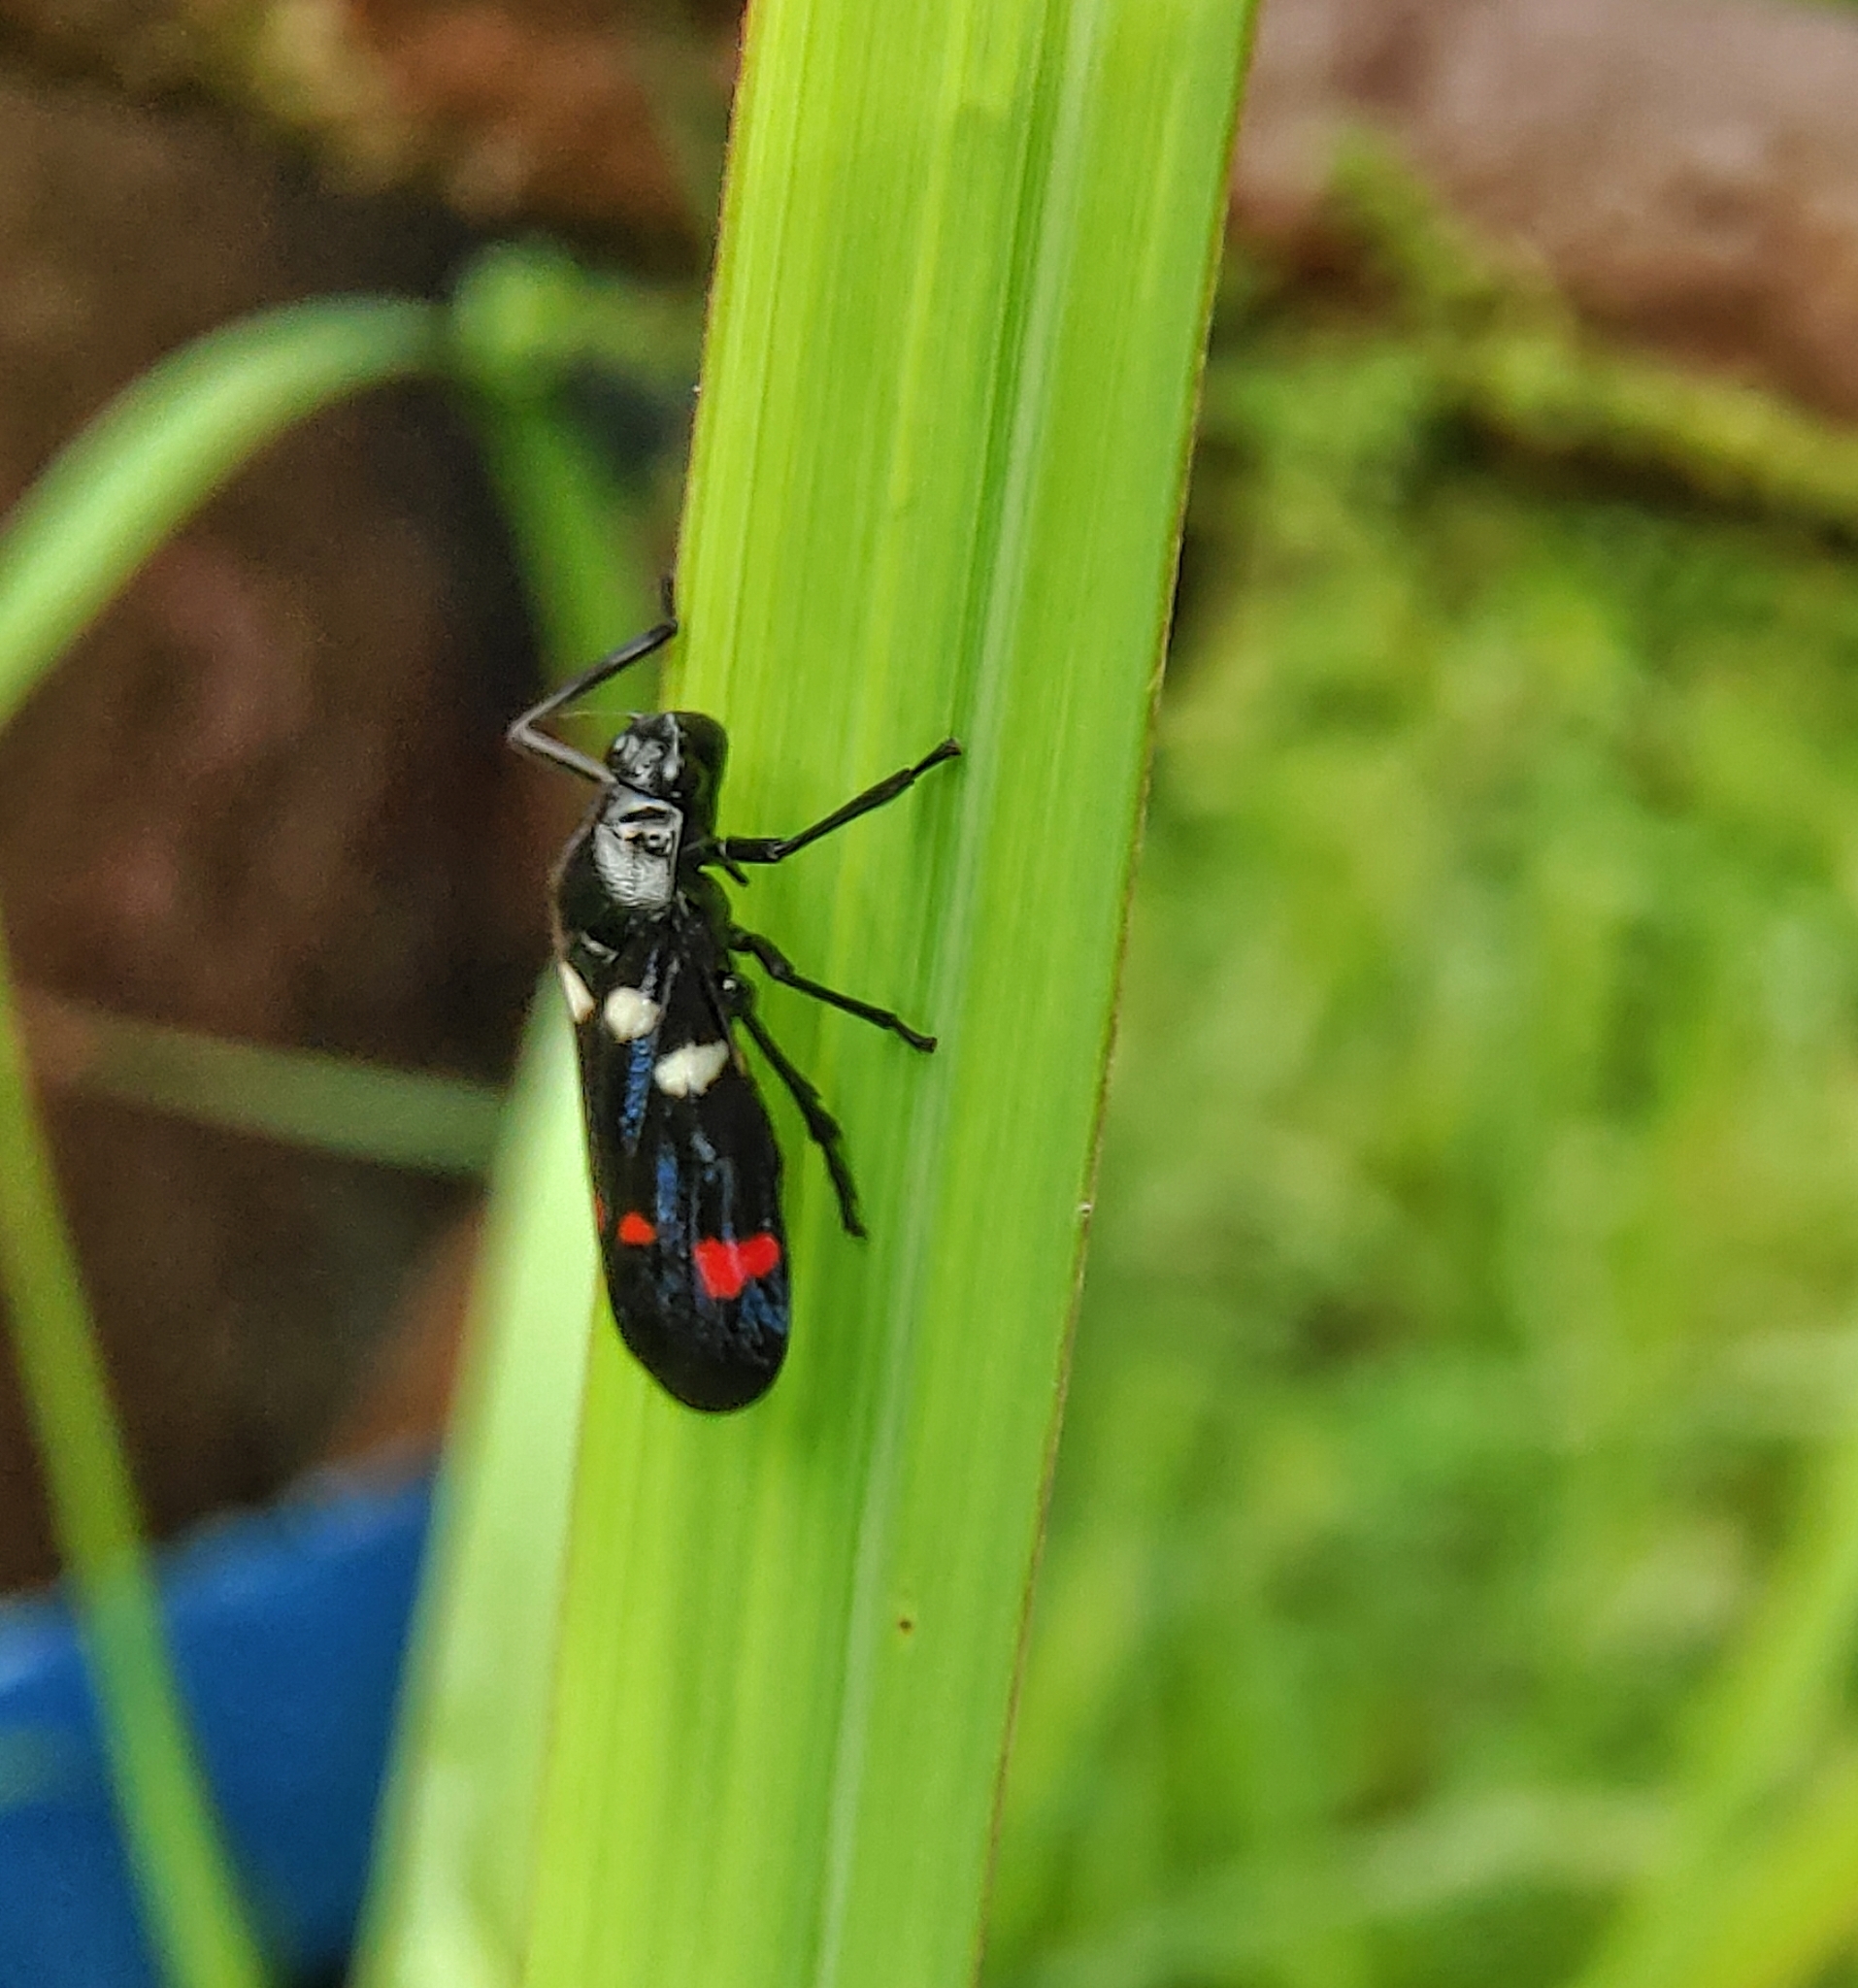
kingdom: Animalia
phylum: Arthropoda
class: Insecta
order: Hemiptera
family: Cercopidae
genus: Callitettix
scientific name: Callitettix versicolor
